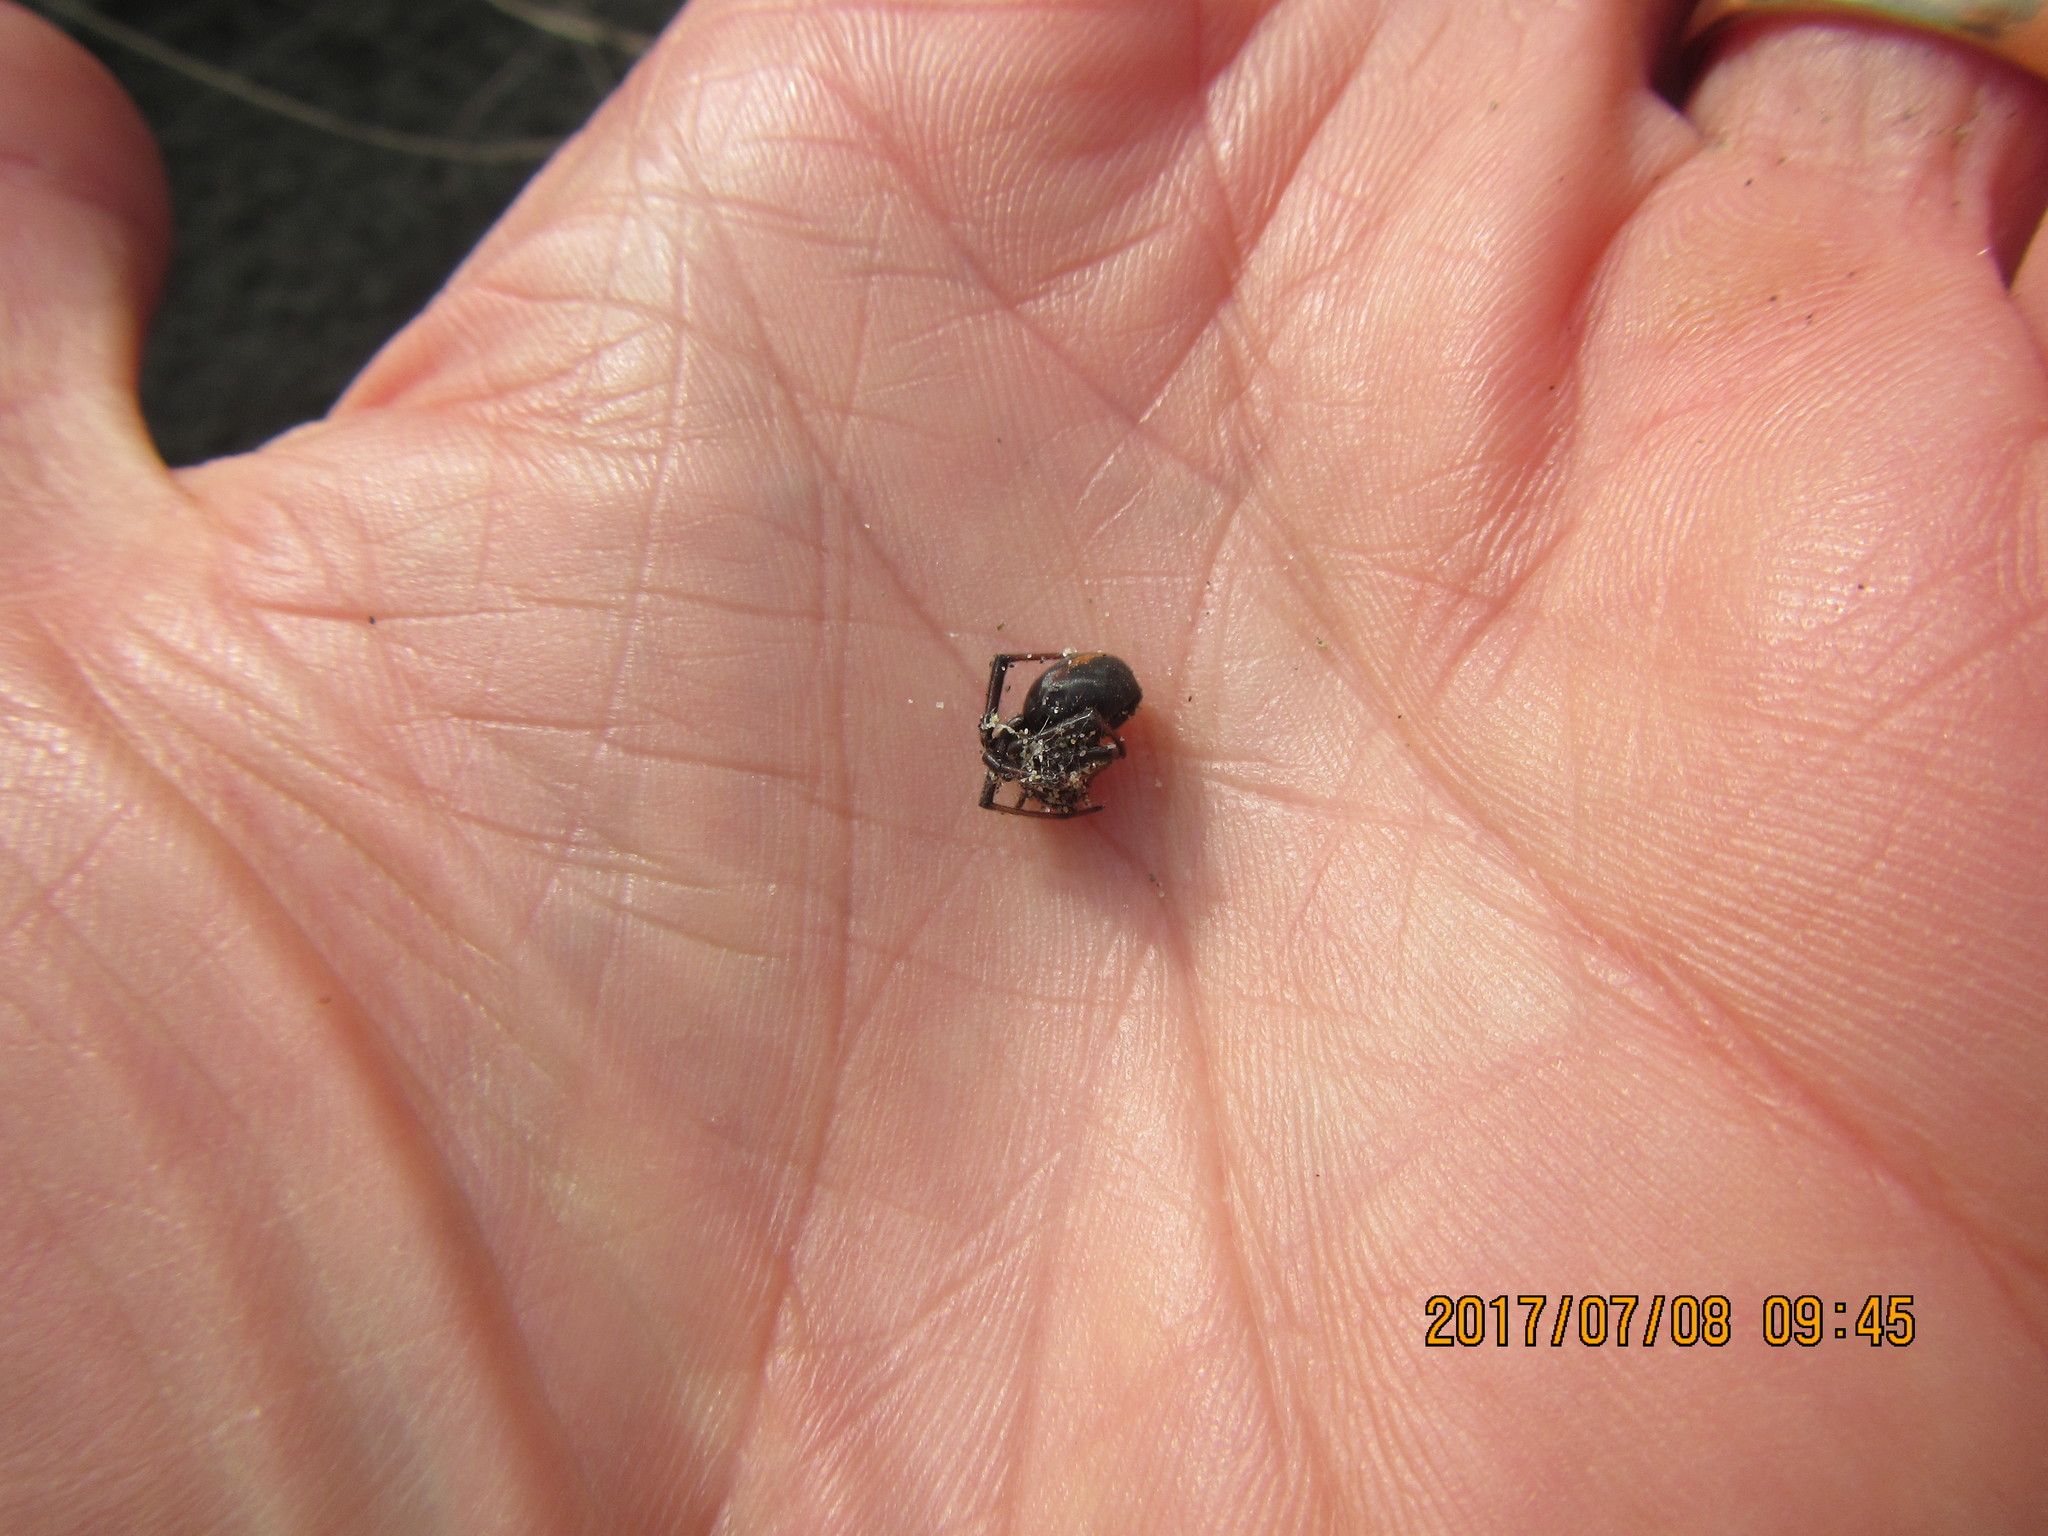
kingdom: Animalia
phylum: Arthropoda
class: Arachnida
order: Araneae
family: Theridiidae
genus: Steatoda
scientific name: Steatoda capensis
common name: Cobweb weaver
